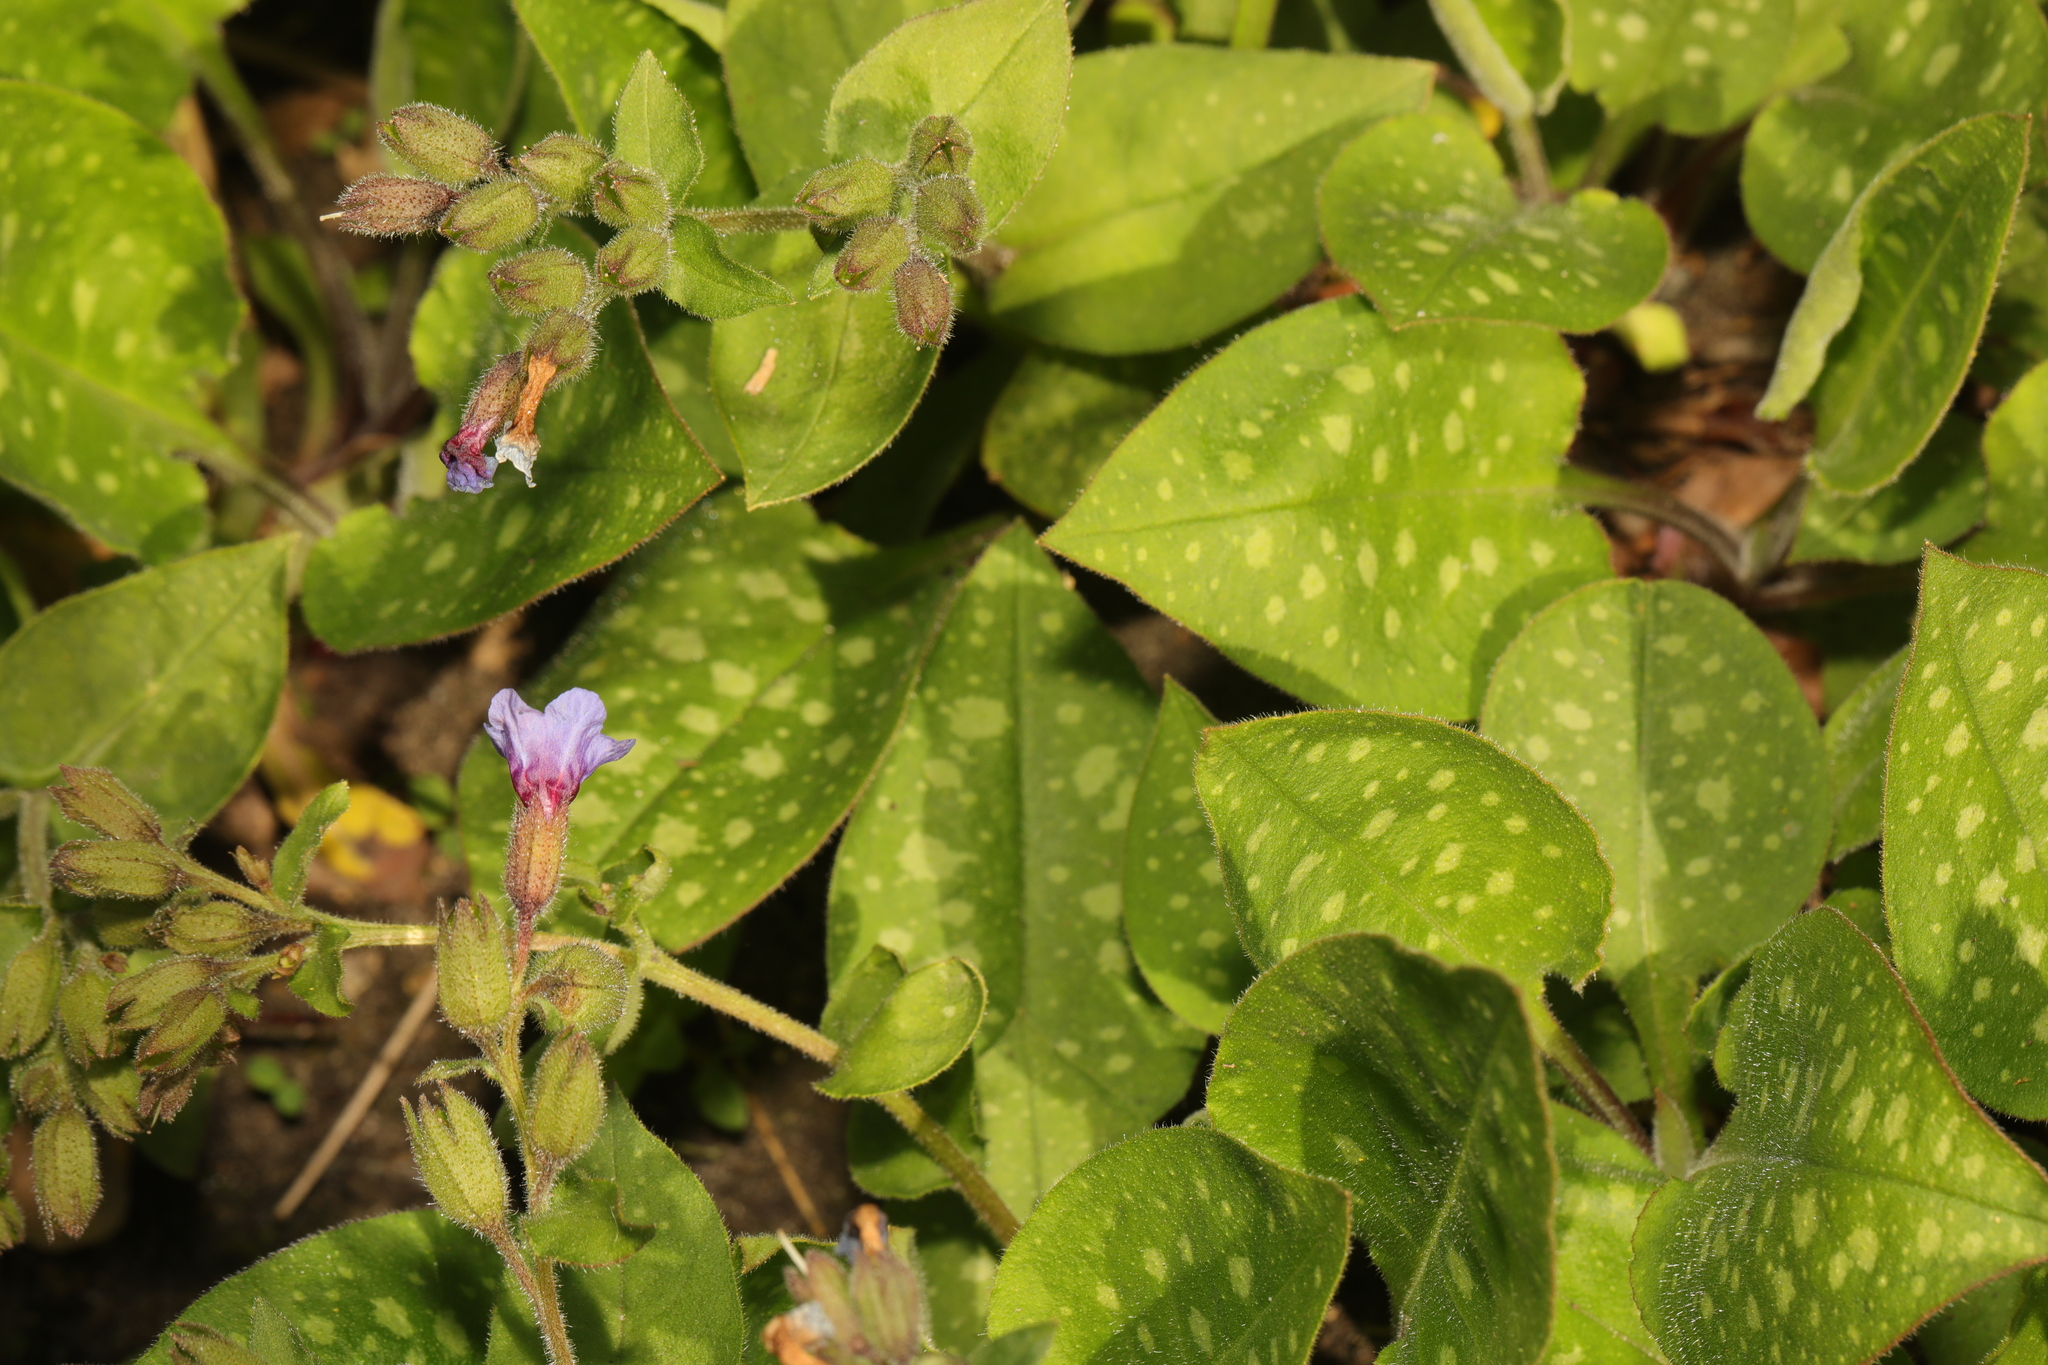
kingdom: Plantae
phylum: Tracheophyta
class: Magnoliopsida
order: Boraginales
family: Boraginaceae
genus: Pulmonaria
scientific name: Pulmonaria officinalis
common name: Lungwort
